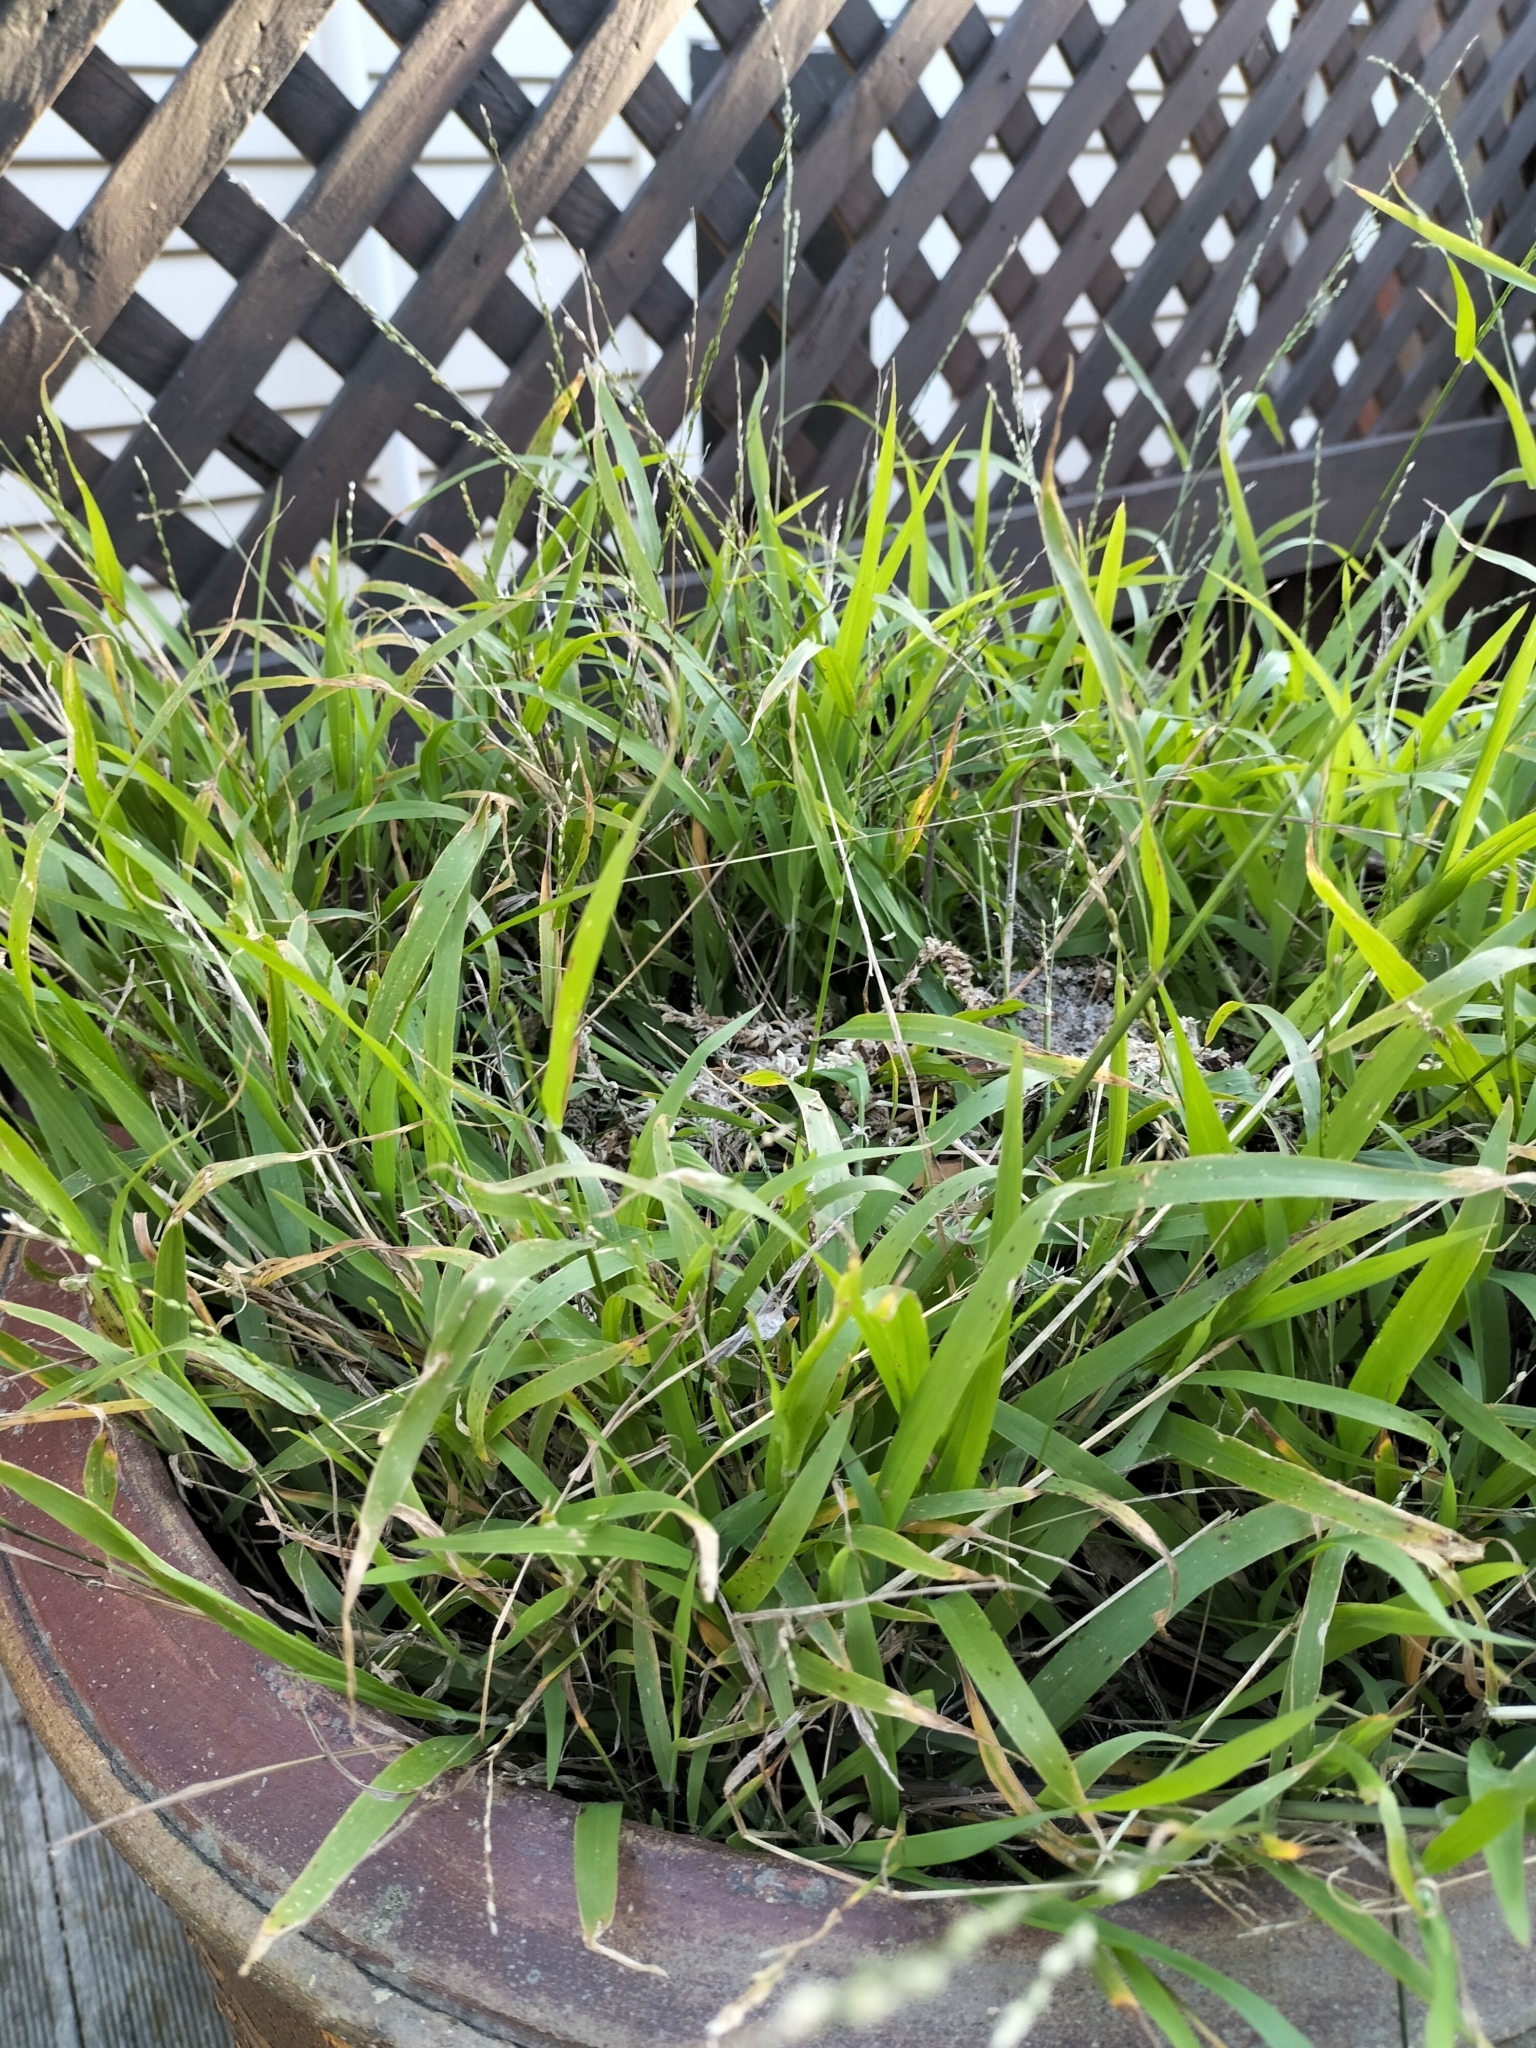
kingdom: Plantae
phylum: Tracheophyta
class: Liliopsida
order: Poales
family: Poaceae
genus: Ehrharta
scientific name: Ehrharta erecta
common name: Panic veldtgrass
